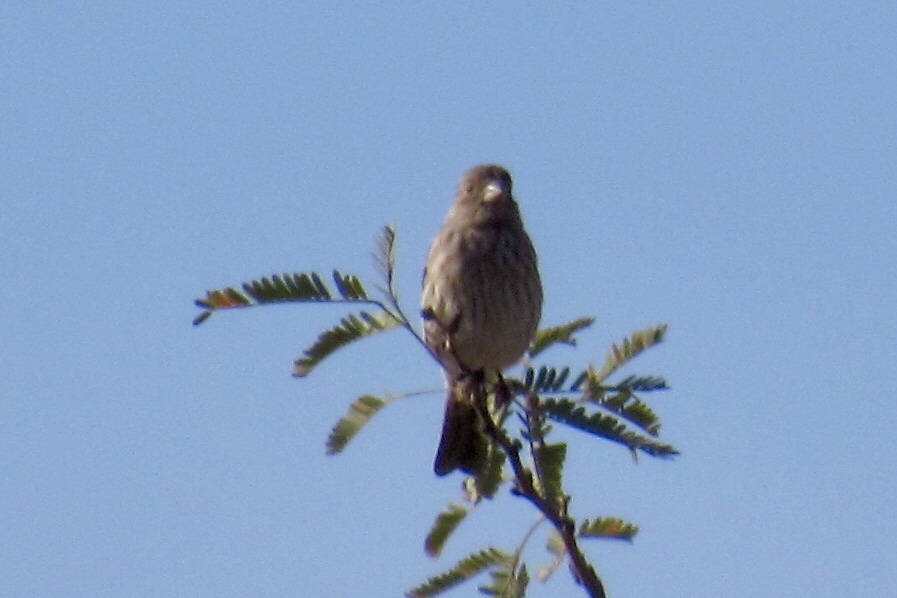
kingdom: Animalia
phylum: Chordata
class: Aves
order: Passeriformes
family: Fringillidae
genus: Haemorhous
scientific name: Haemorhous mexicanus
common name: House finch
